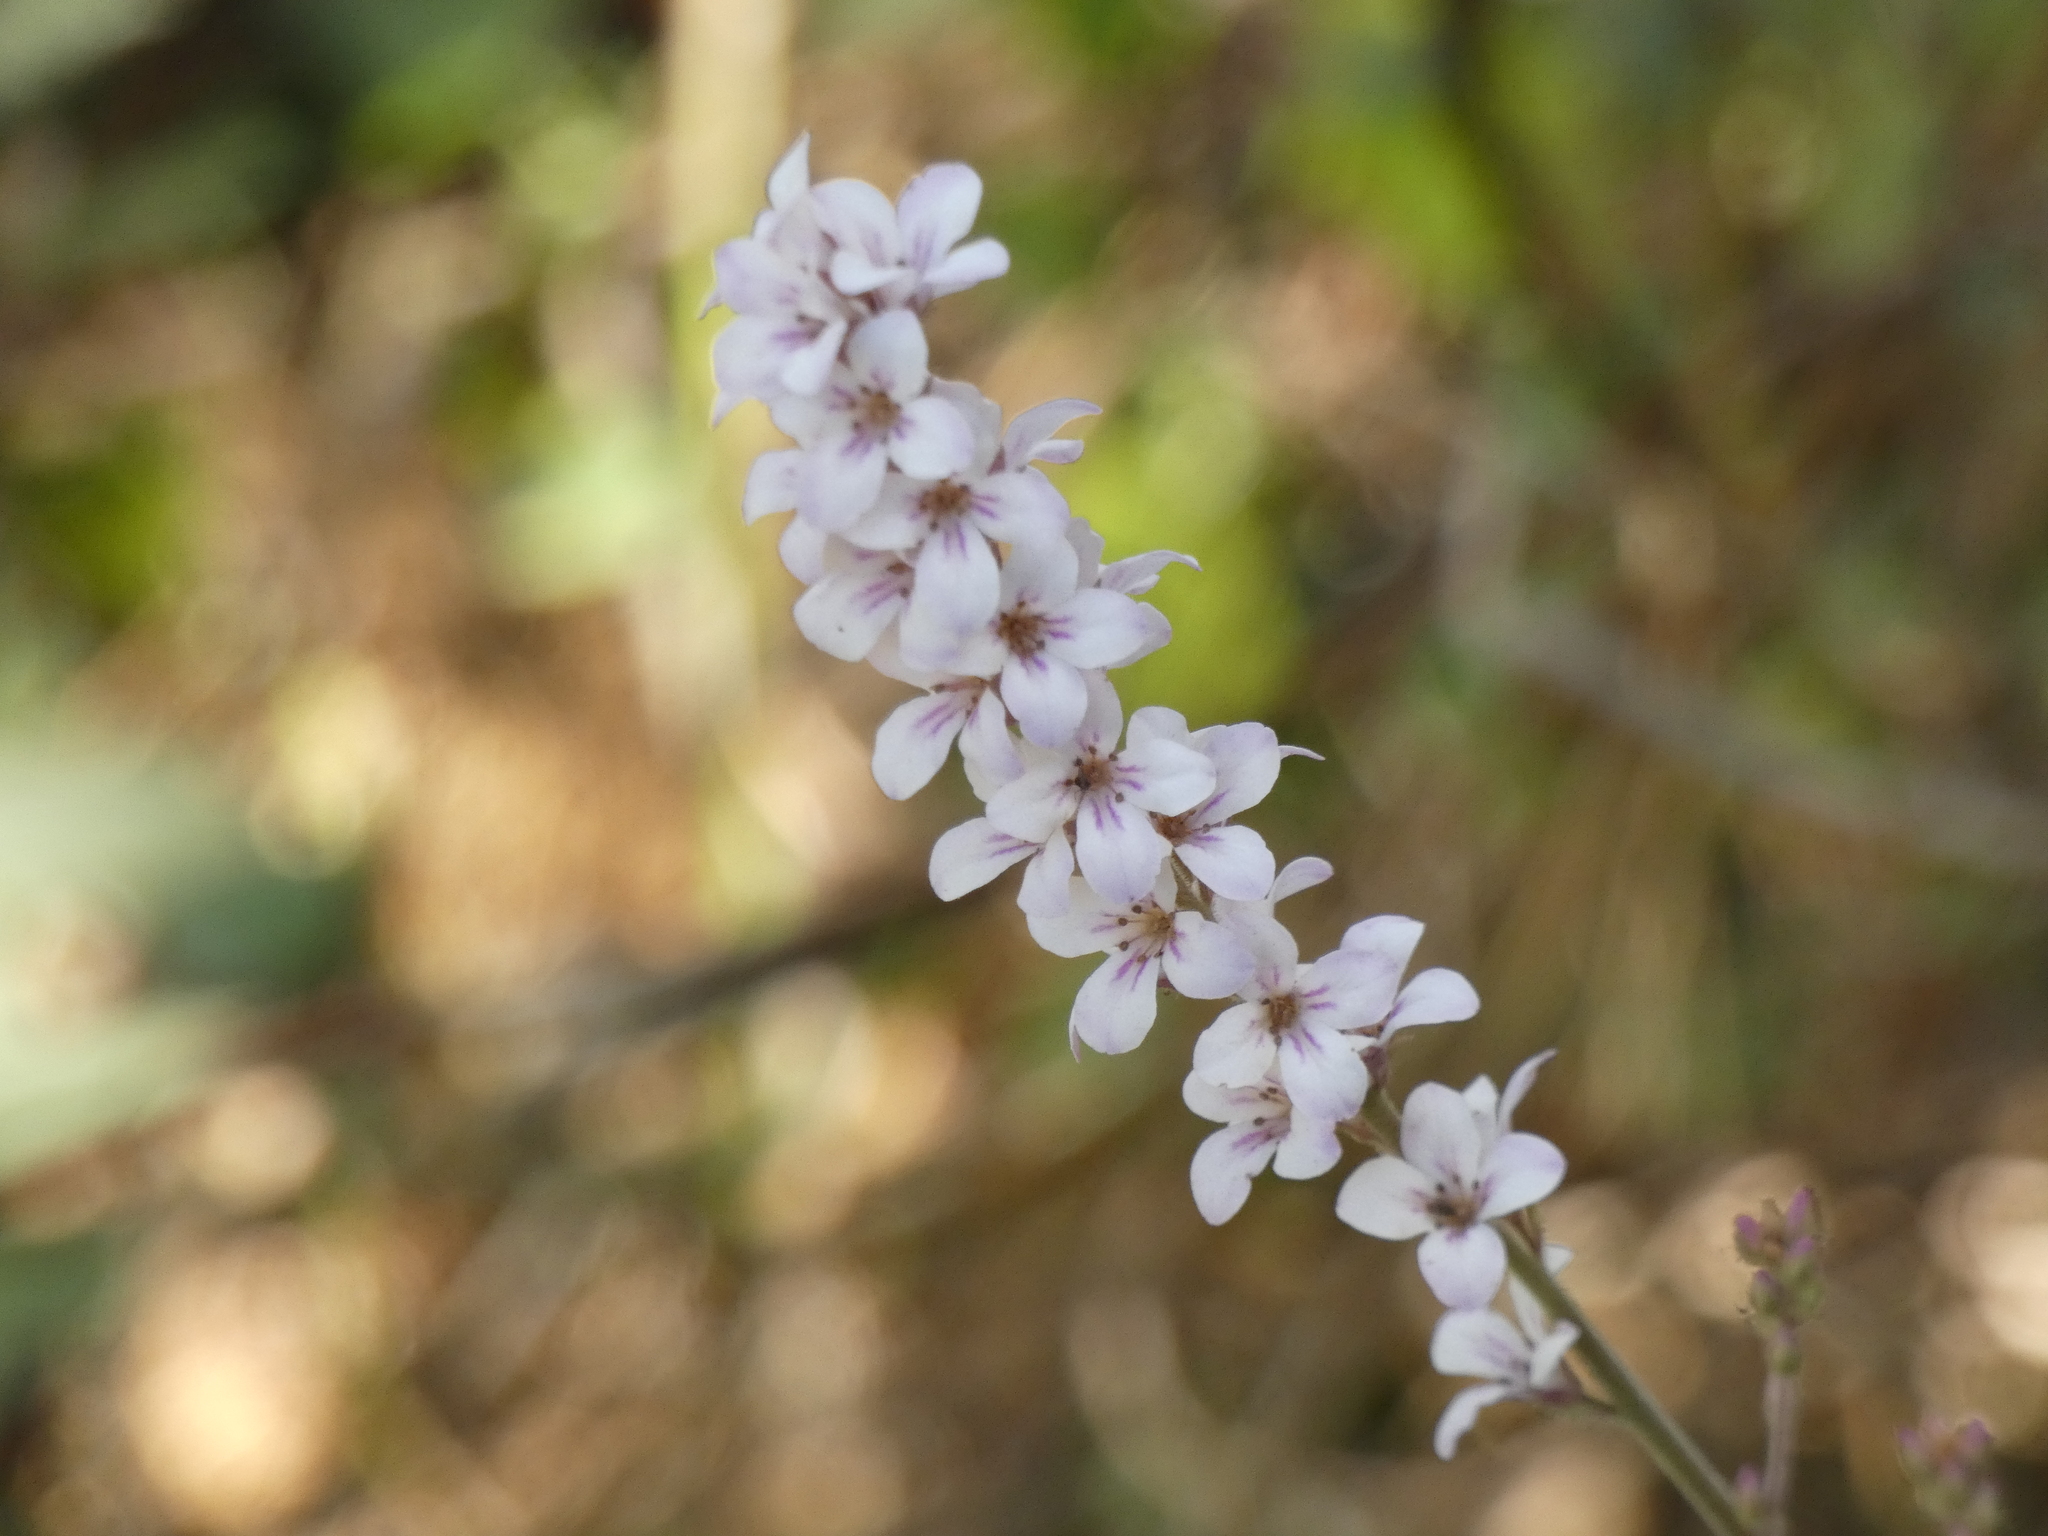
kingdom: Plantae
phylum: Tracheophyta
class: Magnoliopsida
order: Geraniales
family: Francoaceae
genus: Francoa
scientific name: Francoa appendiculata
